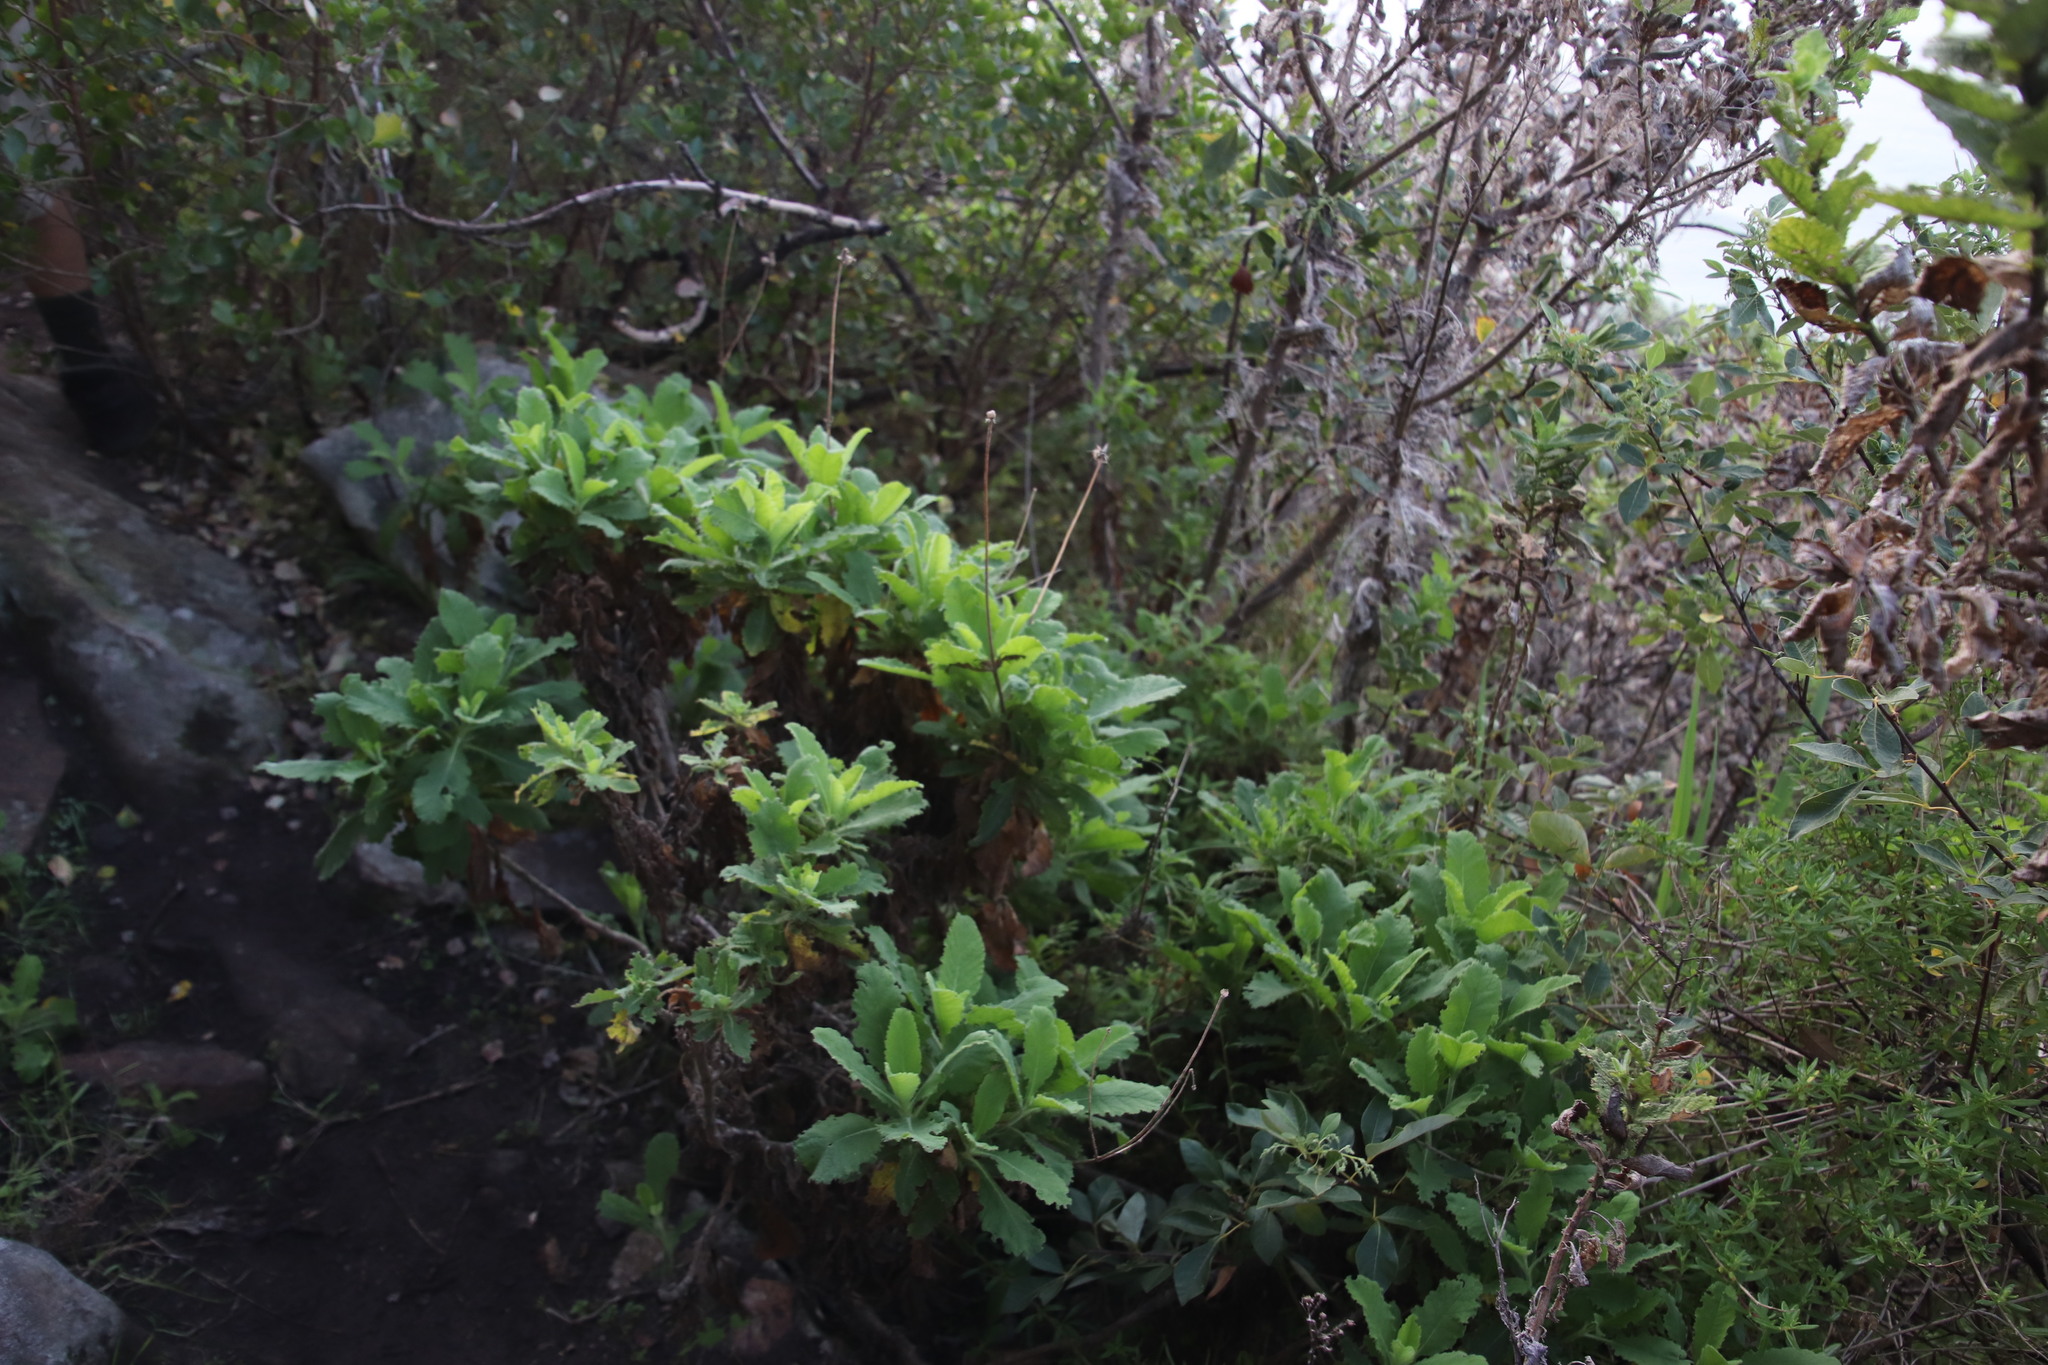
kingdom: Plantae
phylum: Tracheophyta
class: Magnoliopsida
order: Dipsacales
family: Caprifoliaceae
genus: Scabiosa
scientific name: Scabiosa africana
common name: Cape scabious
